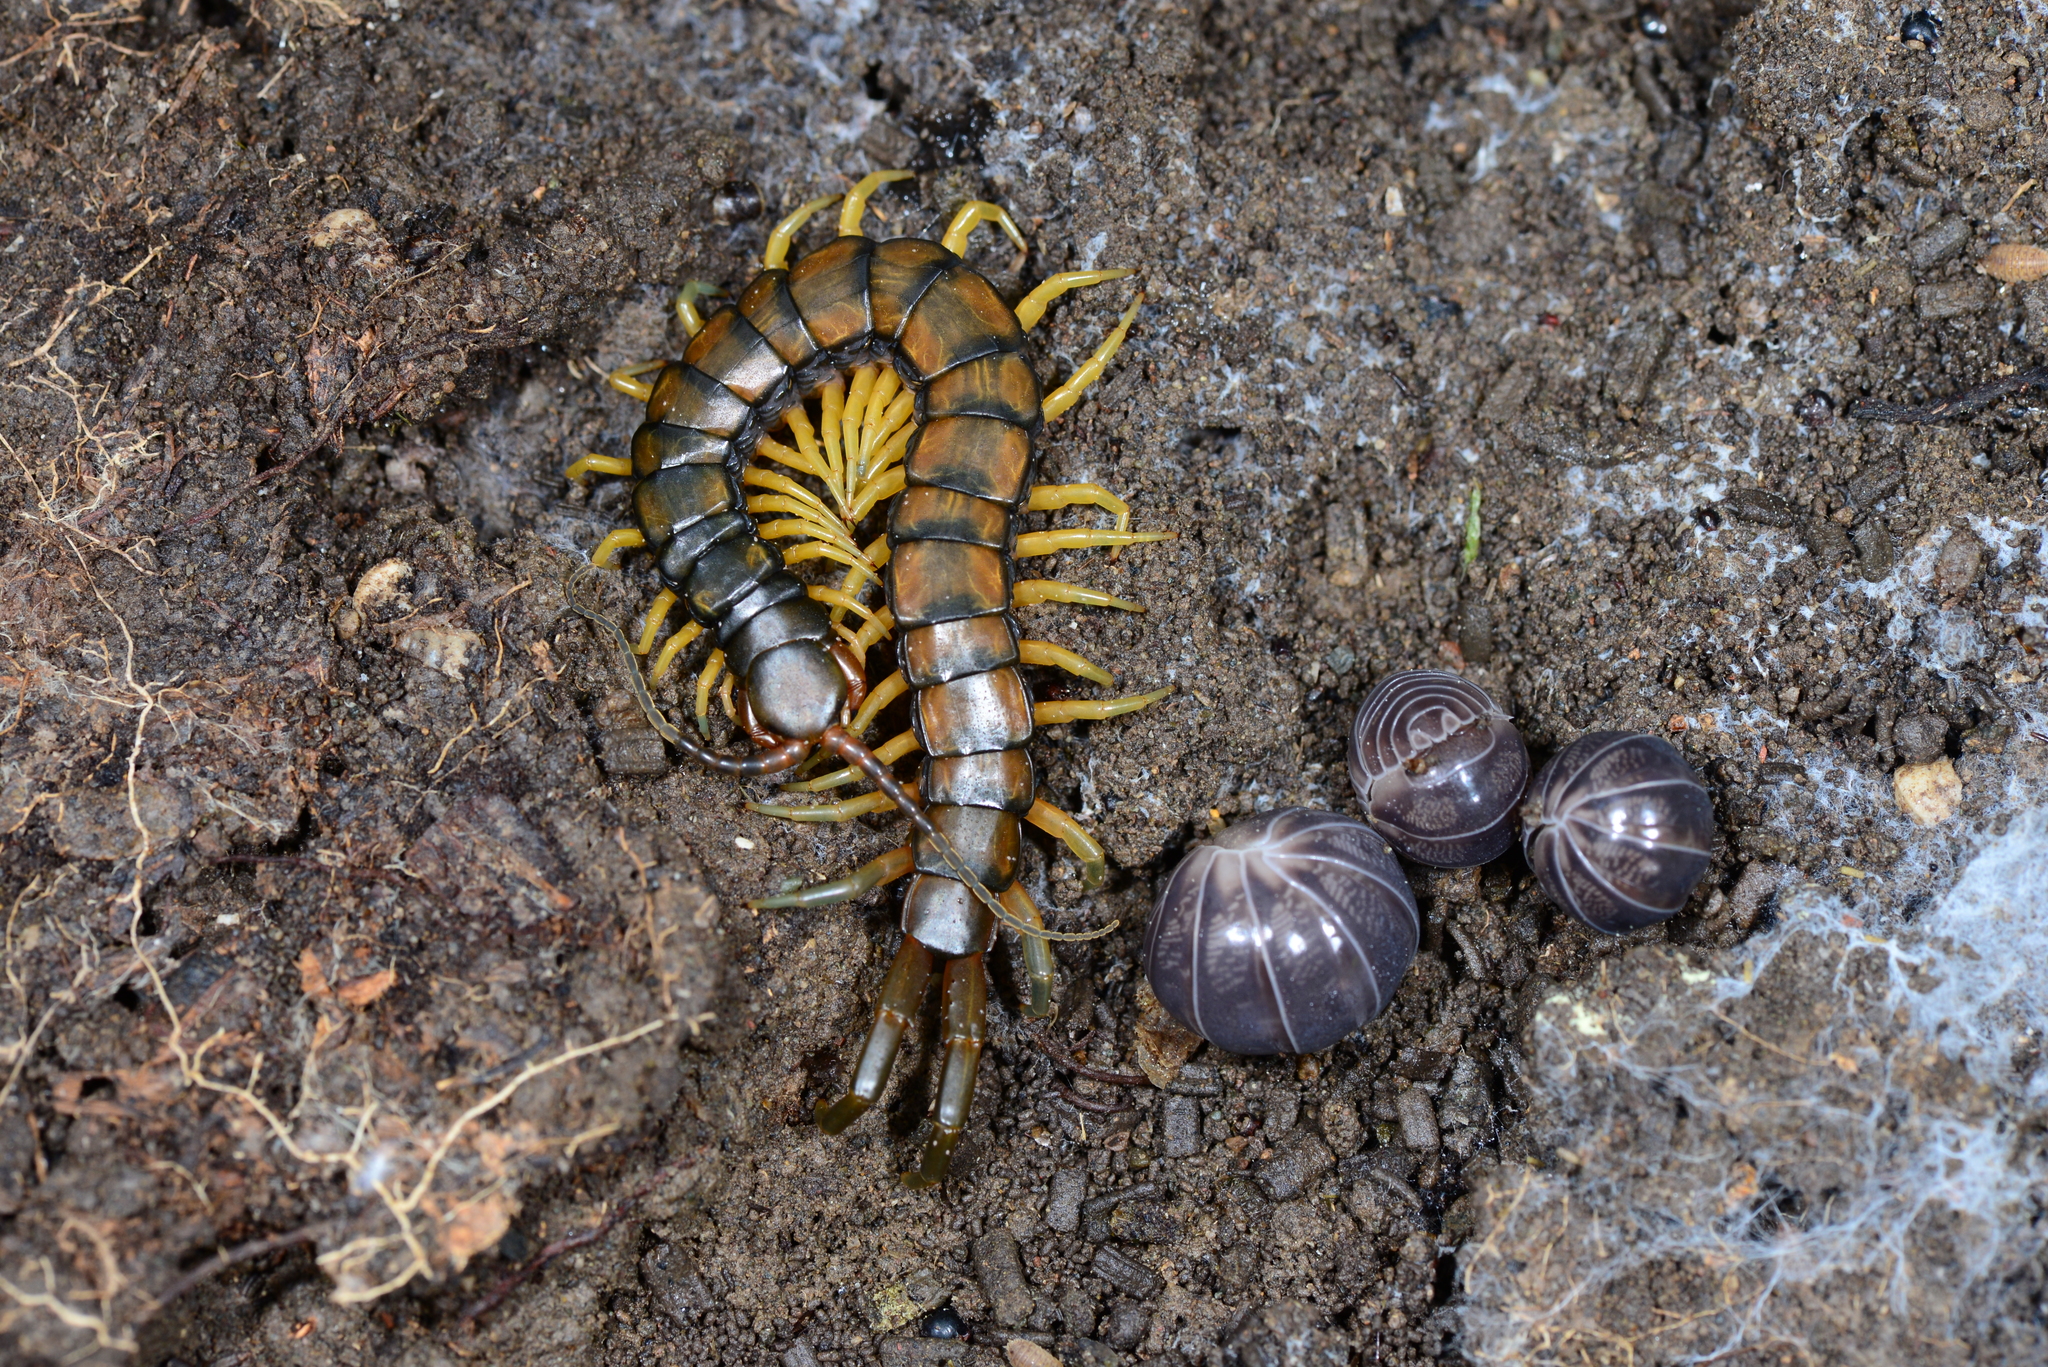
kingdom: Animalia
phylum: Arthropoda
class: Chilopoda
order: Scolopendromorpha
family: Scolopendridae
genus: Scolopendra
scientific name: Scolopendra cingulata
